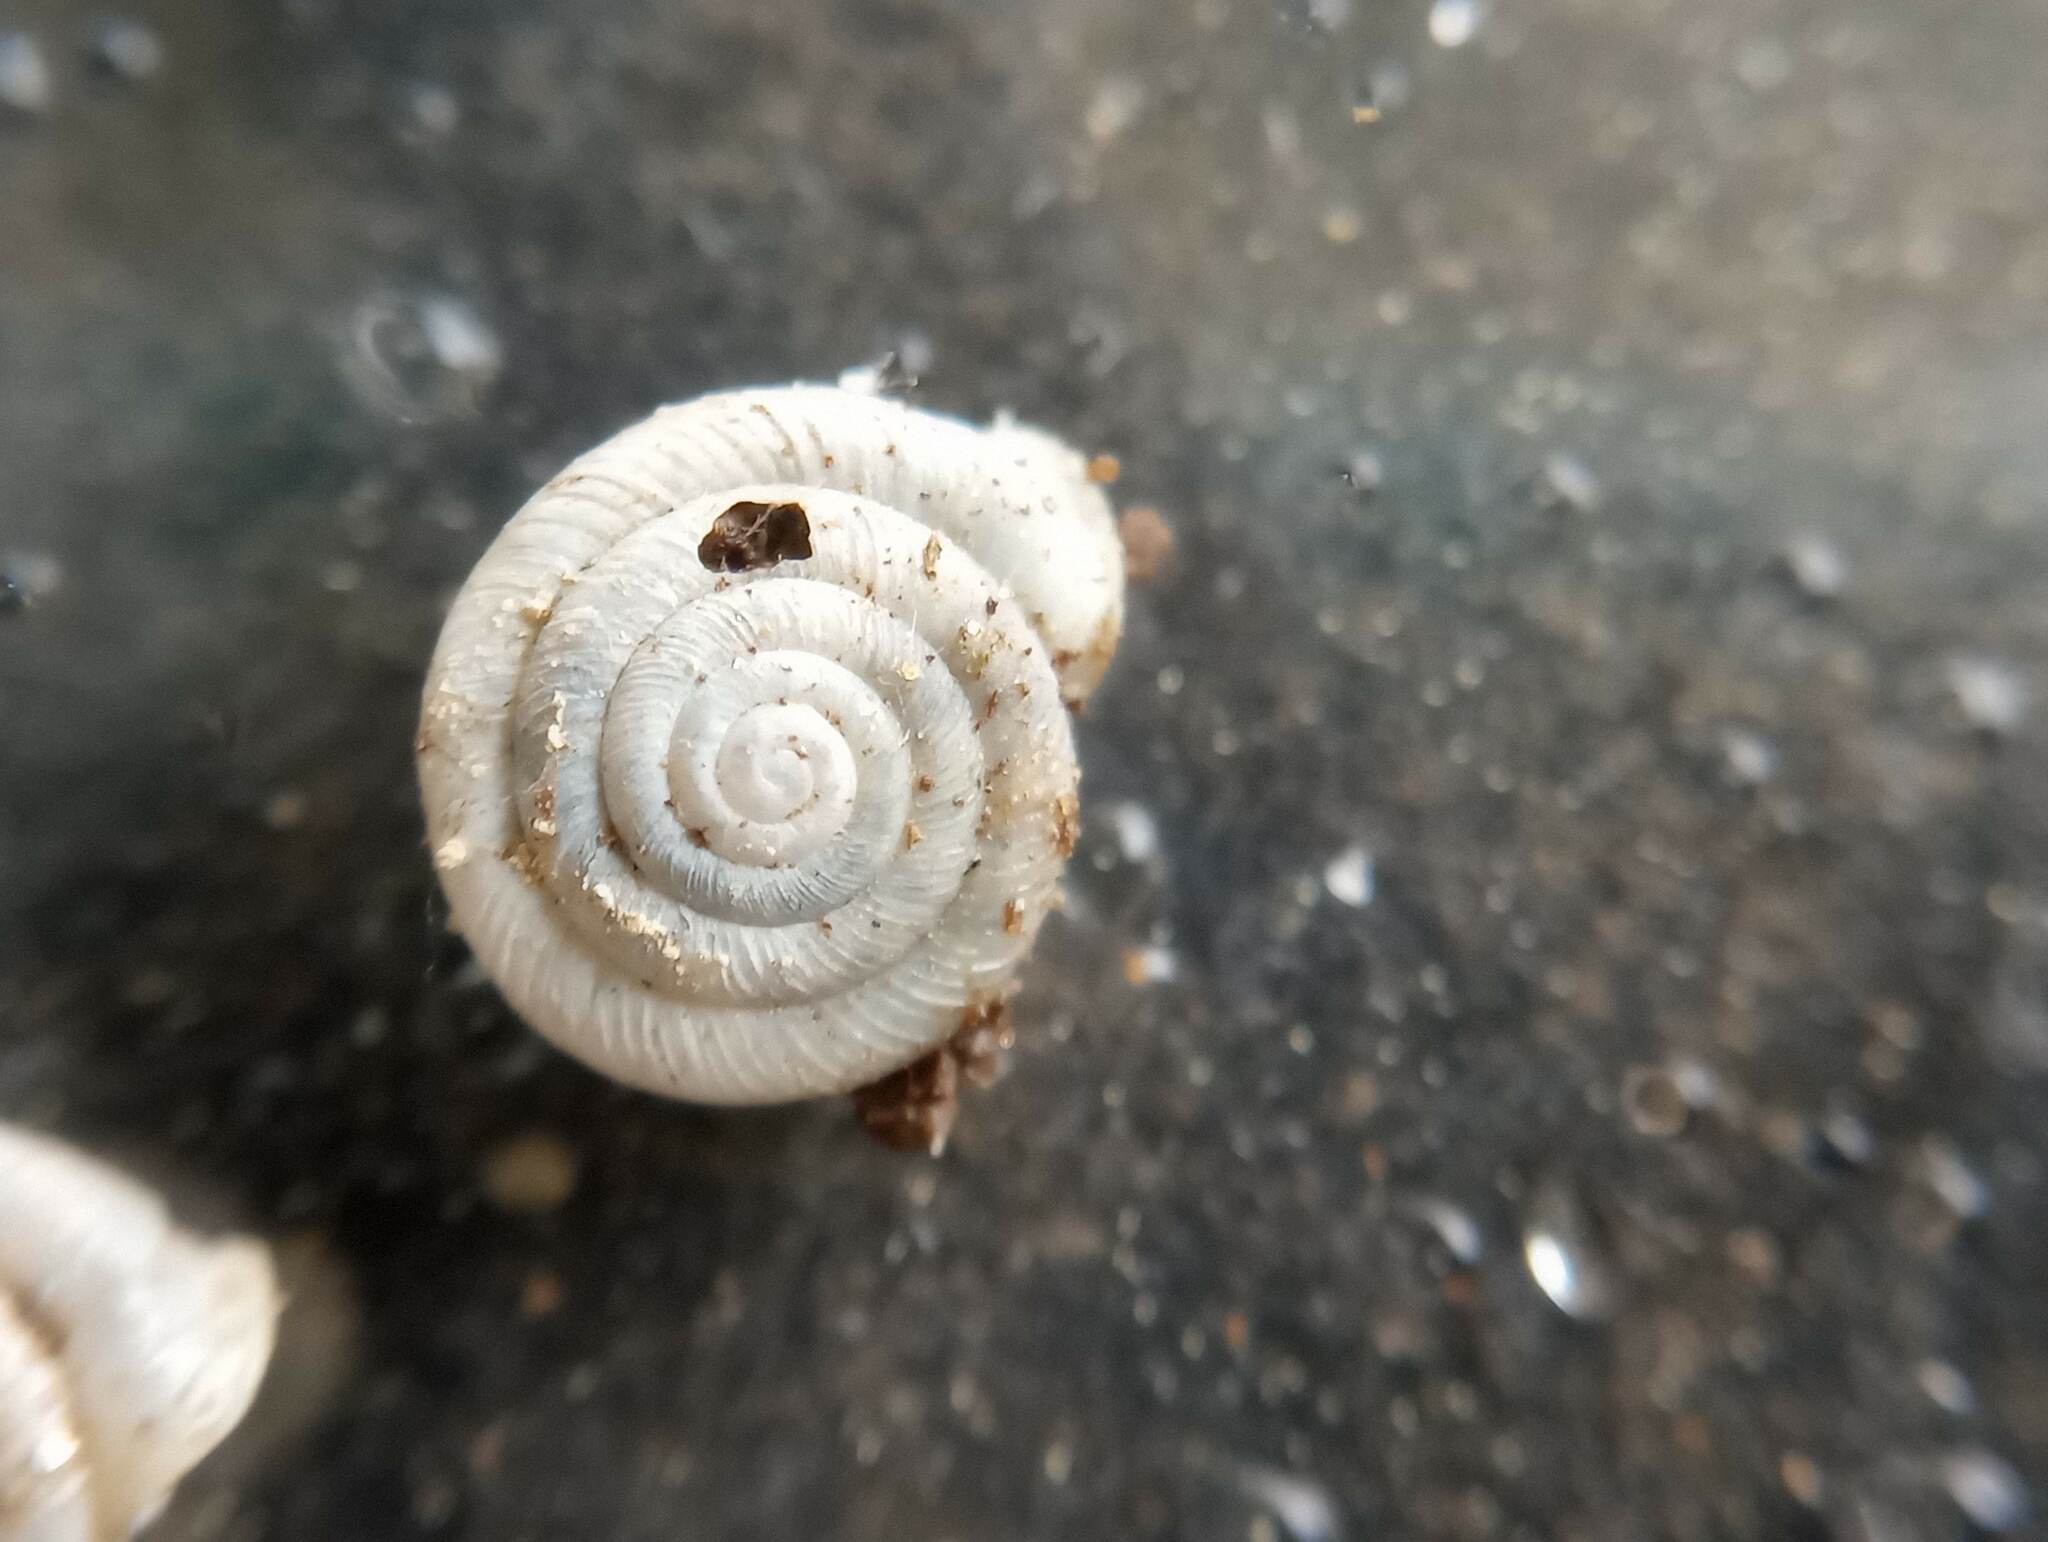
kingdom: Animalia
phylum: Mollusca
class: Gastropoda
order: Stylommatophora
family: Polygyridae
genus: Polygyra
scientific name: Polygyra cereolus
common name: Southern flatcone snail
